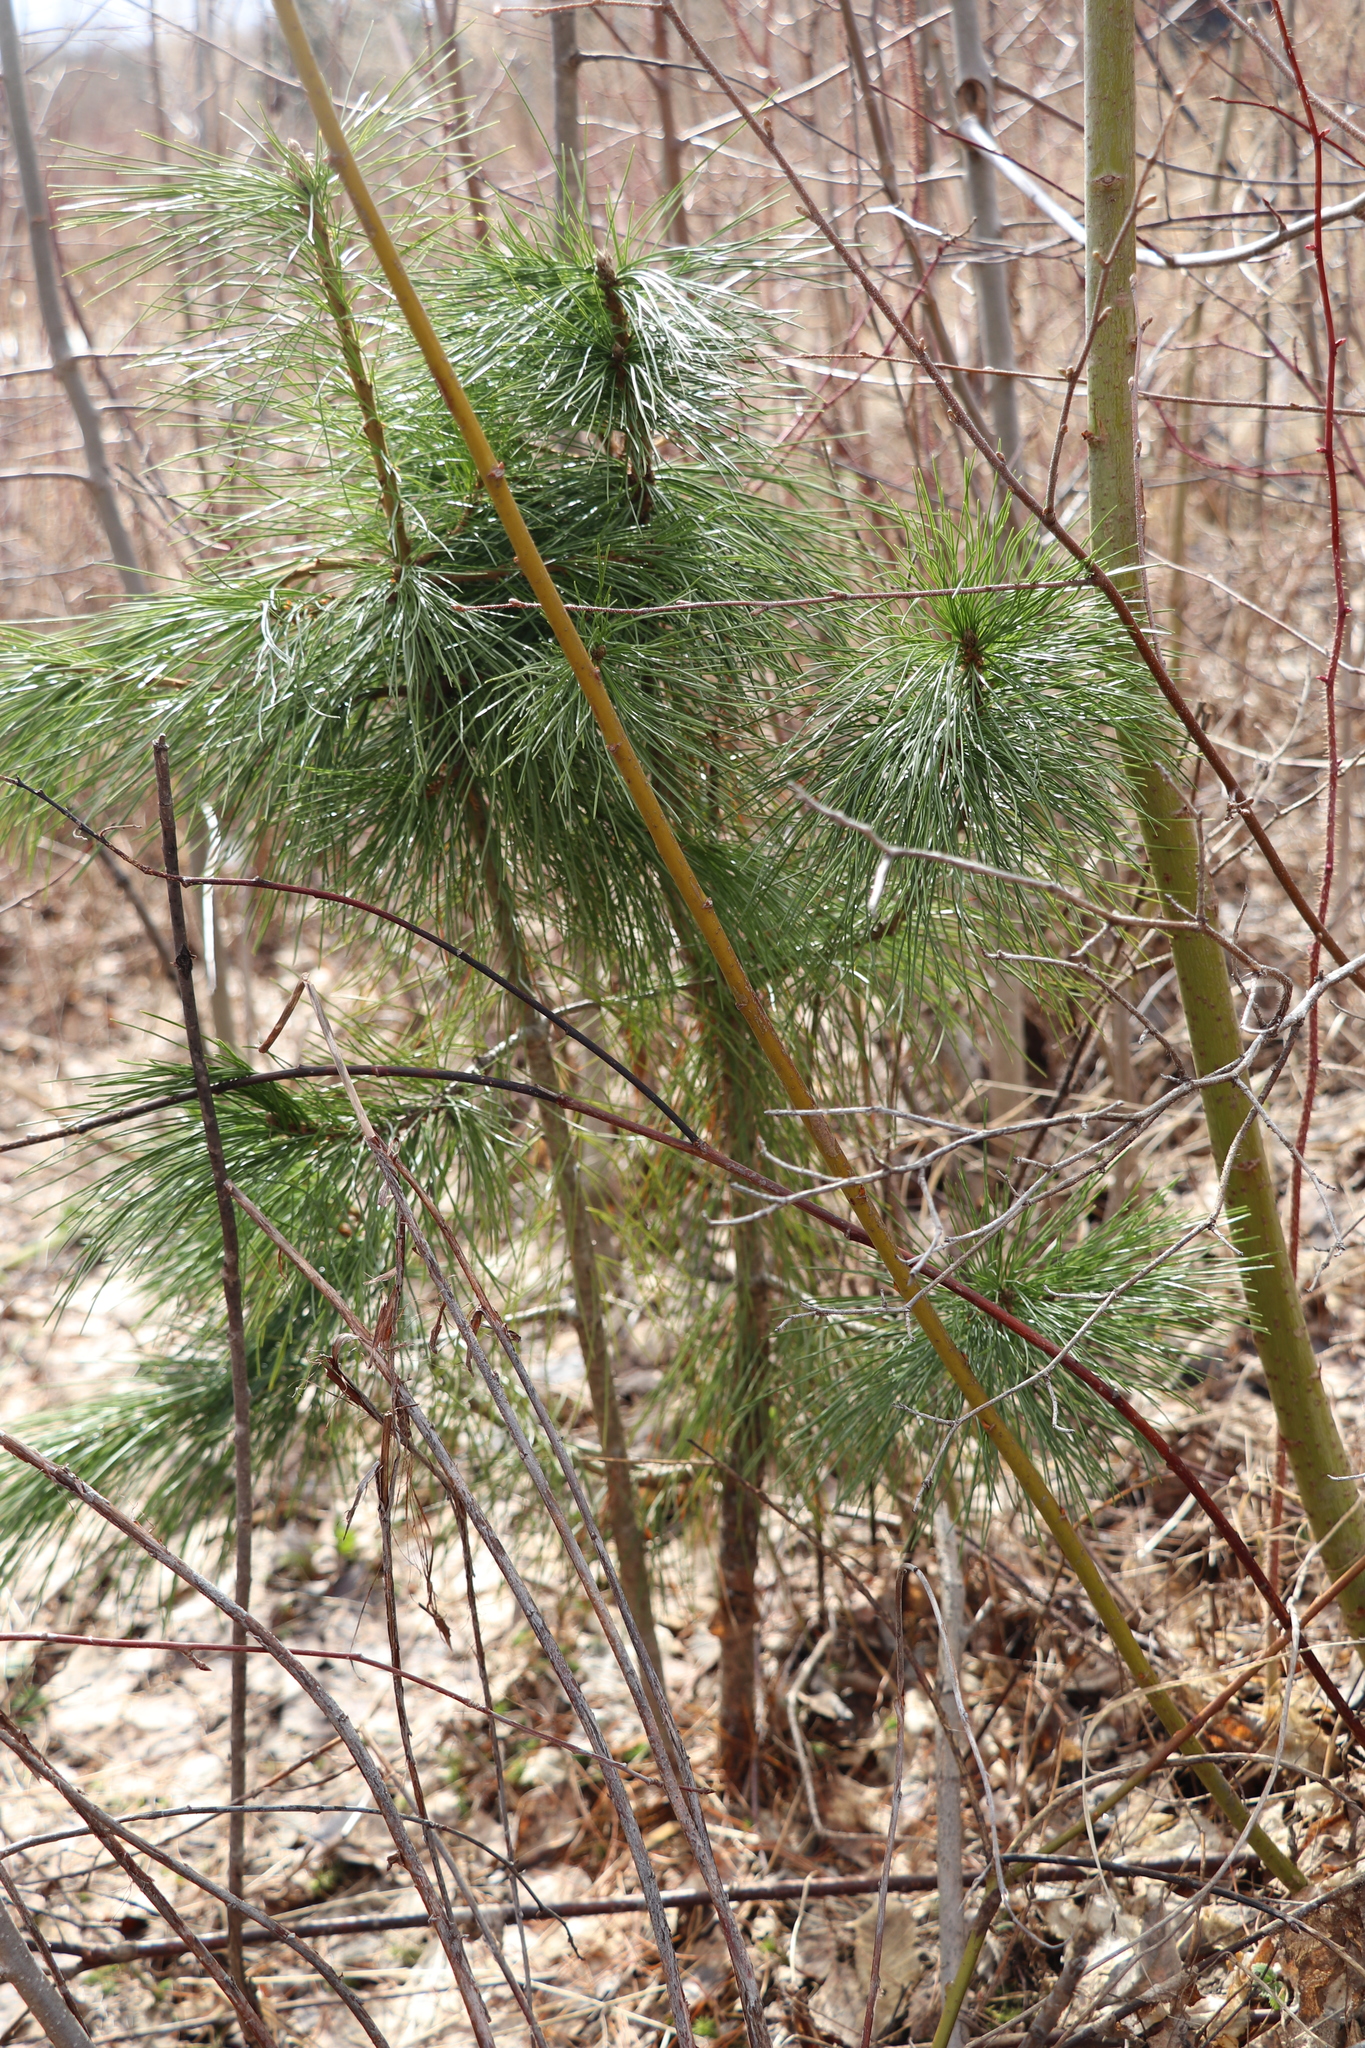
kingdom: Plantae
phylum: Tracheophyta
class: Pinopsida
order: Pinales
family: Pinaceae
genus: Pinus
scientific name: Pinus sibirica
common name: Siberian pine
